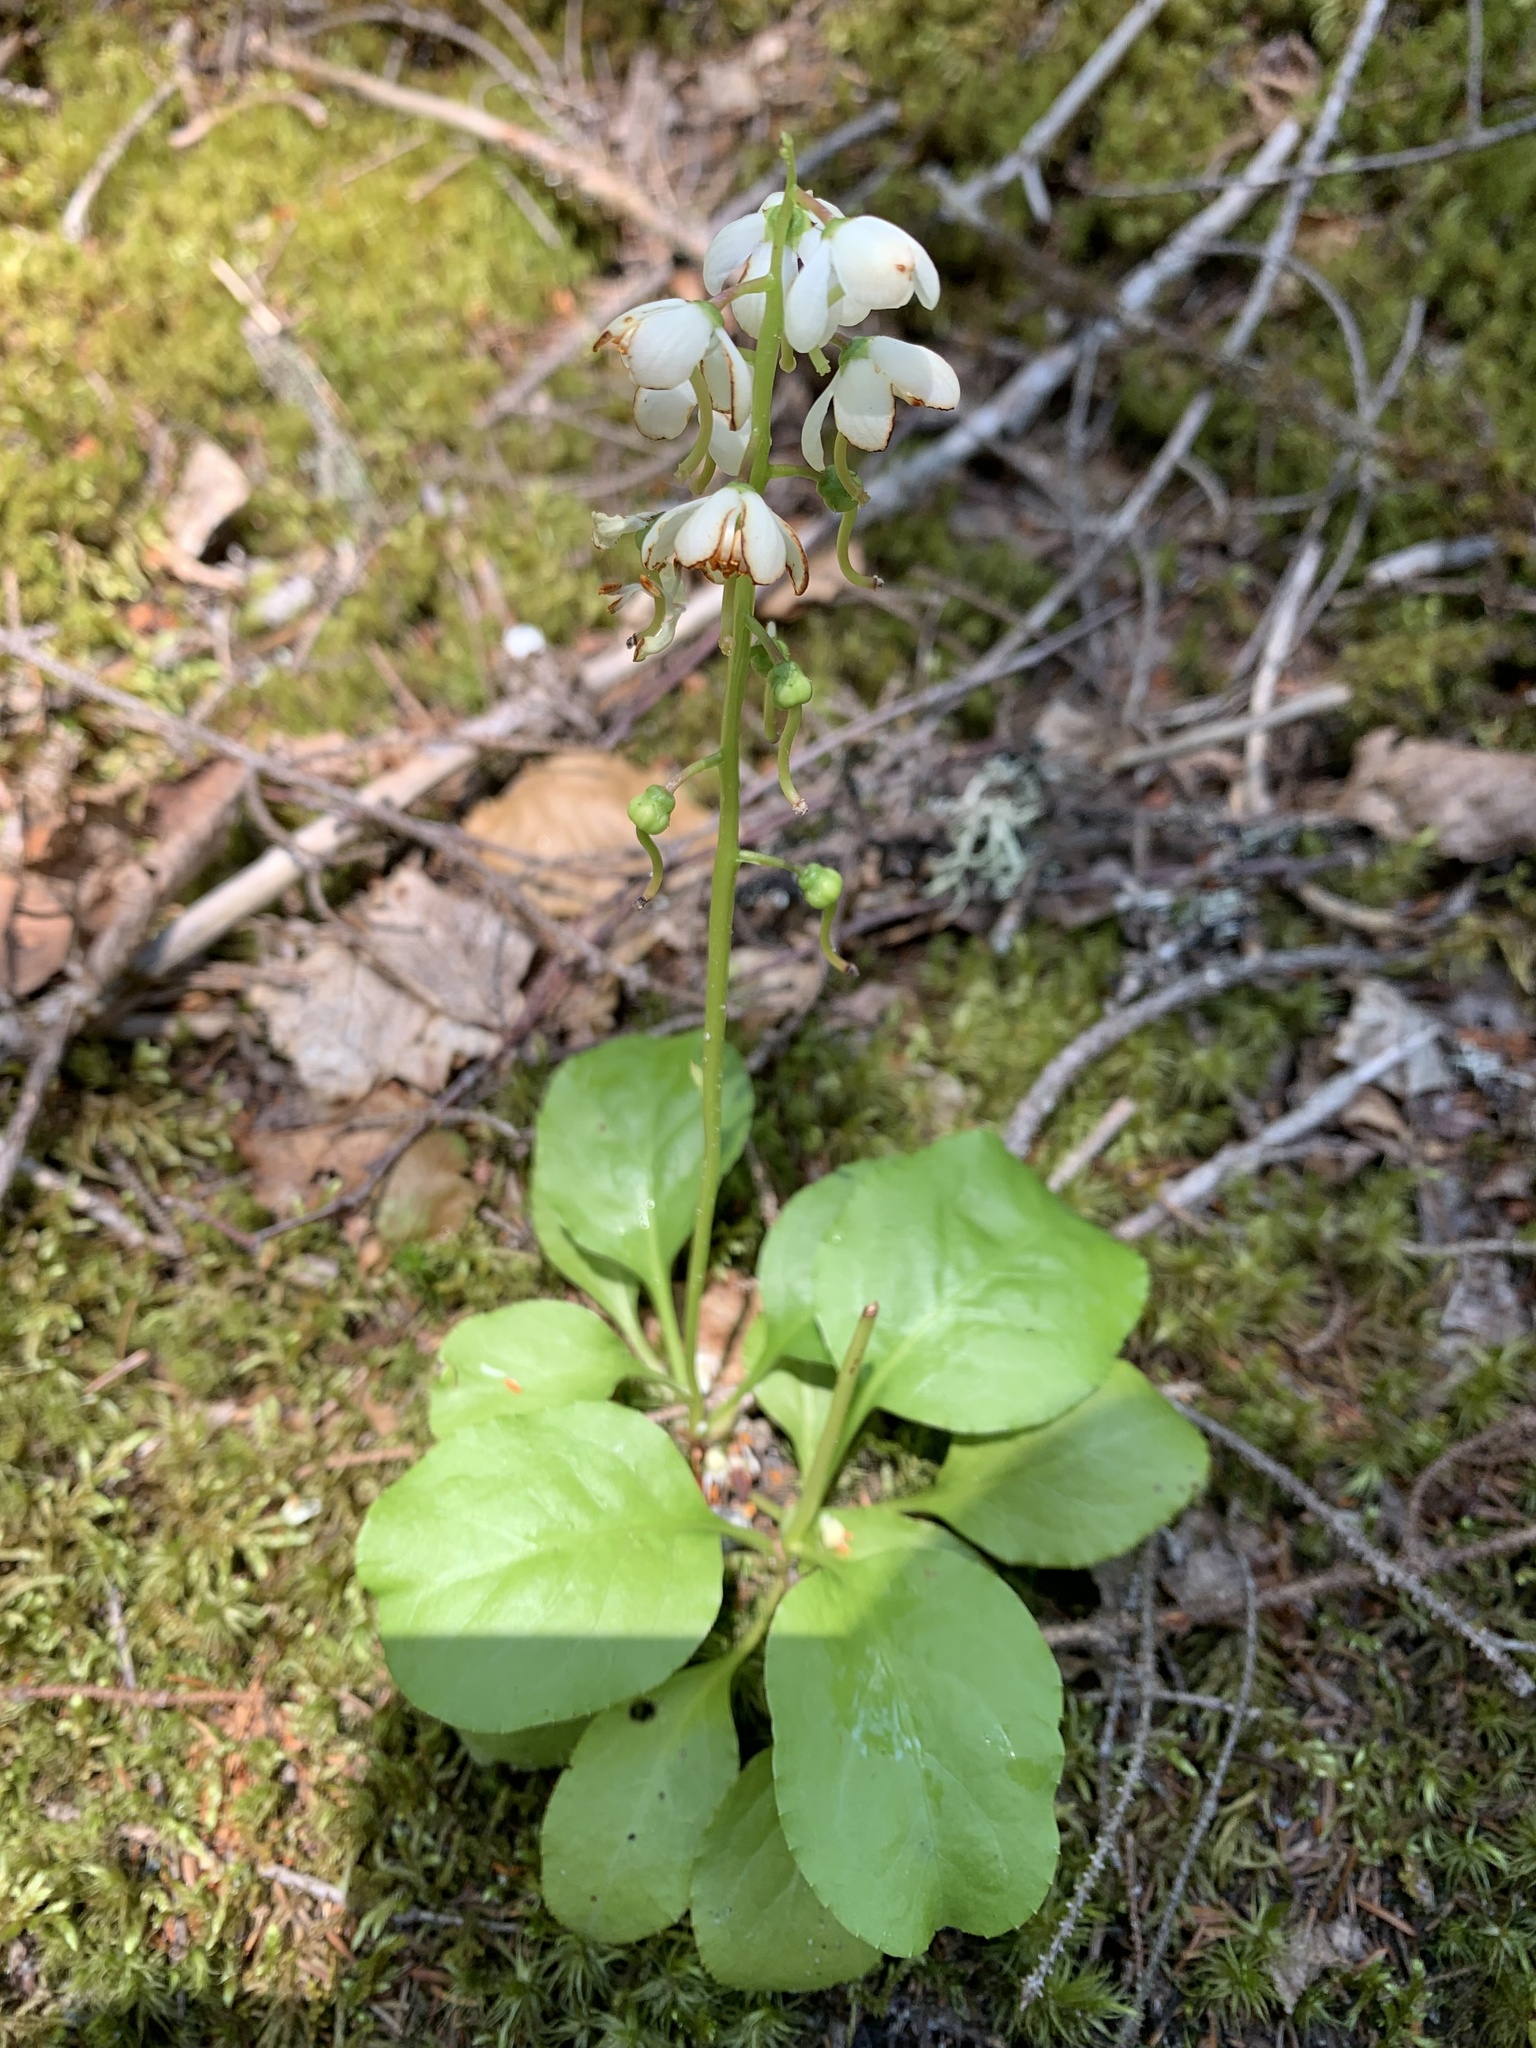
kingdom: Plantae
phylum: Tracheophyta
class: Magnoliopsida
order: Ericales
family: Ericaceae
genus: Pyrola
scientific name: Pyrola elliptica
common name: Shinleaf
